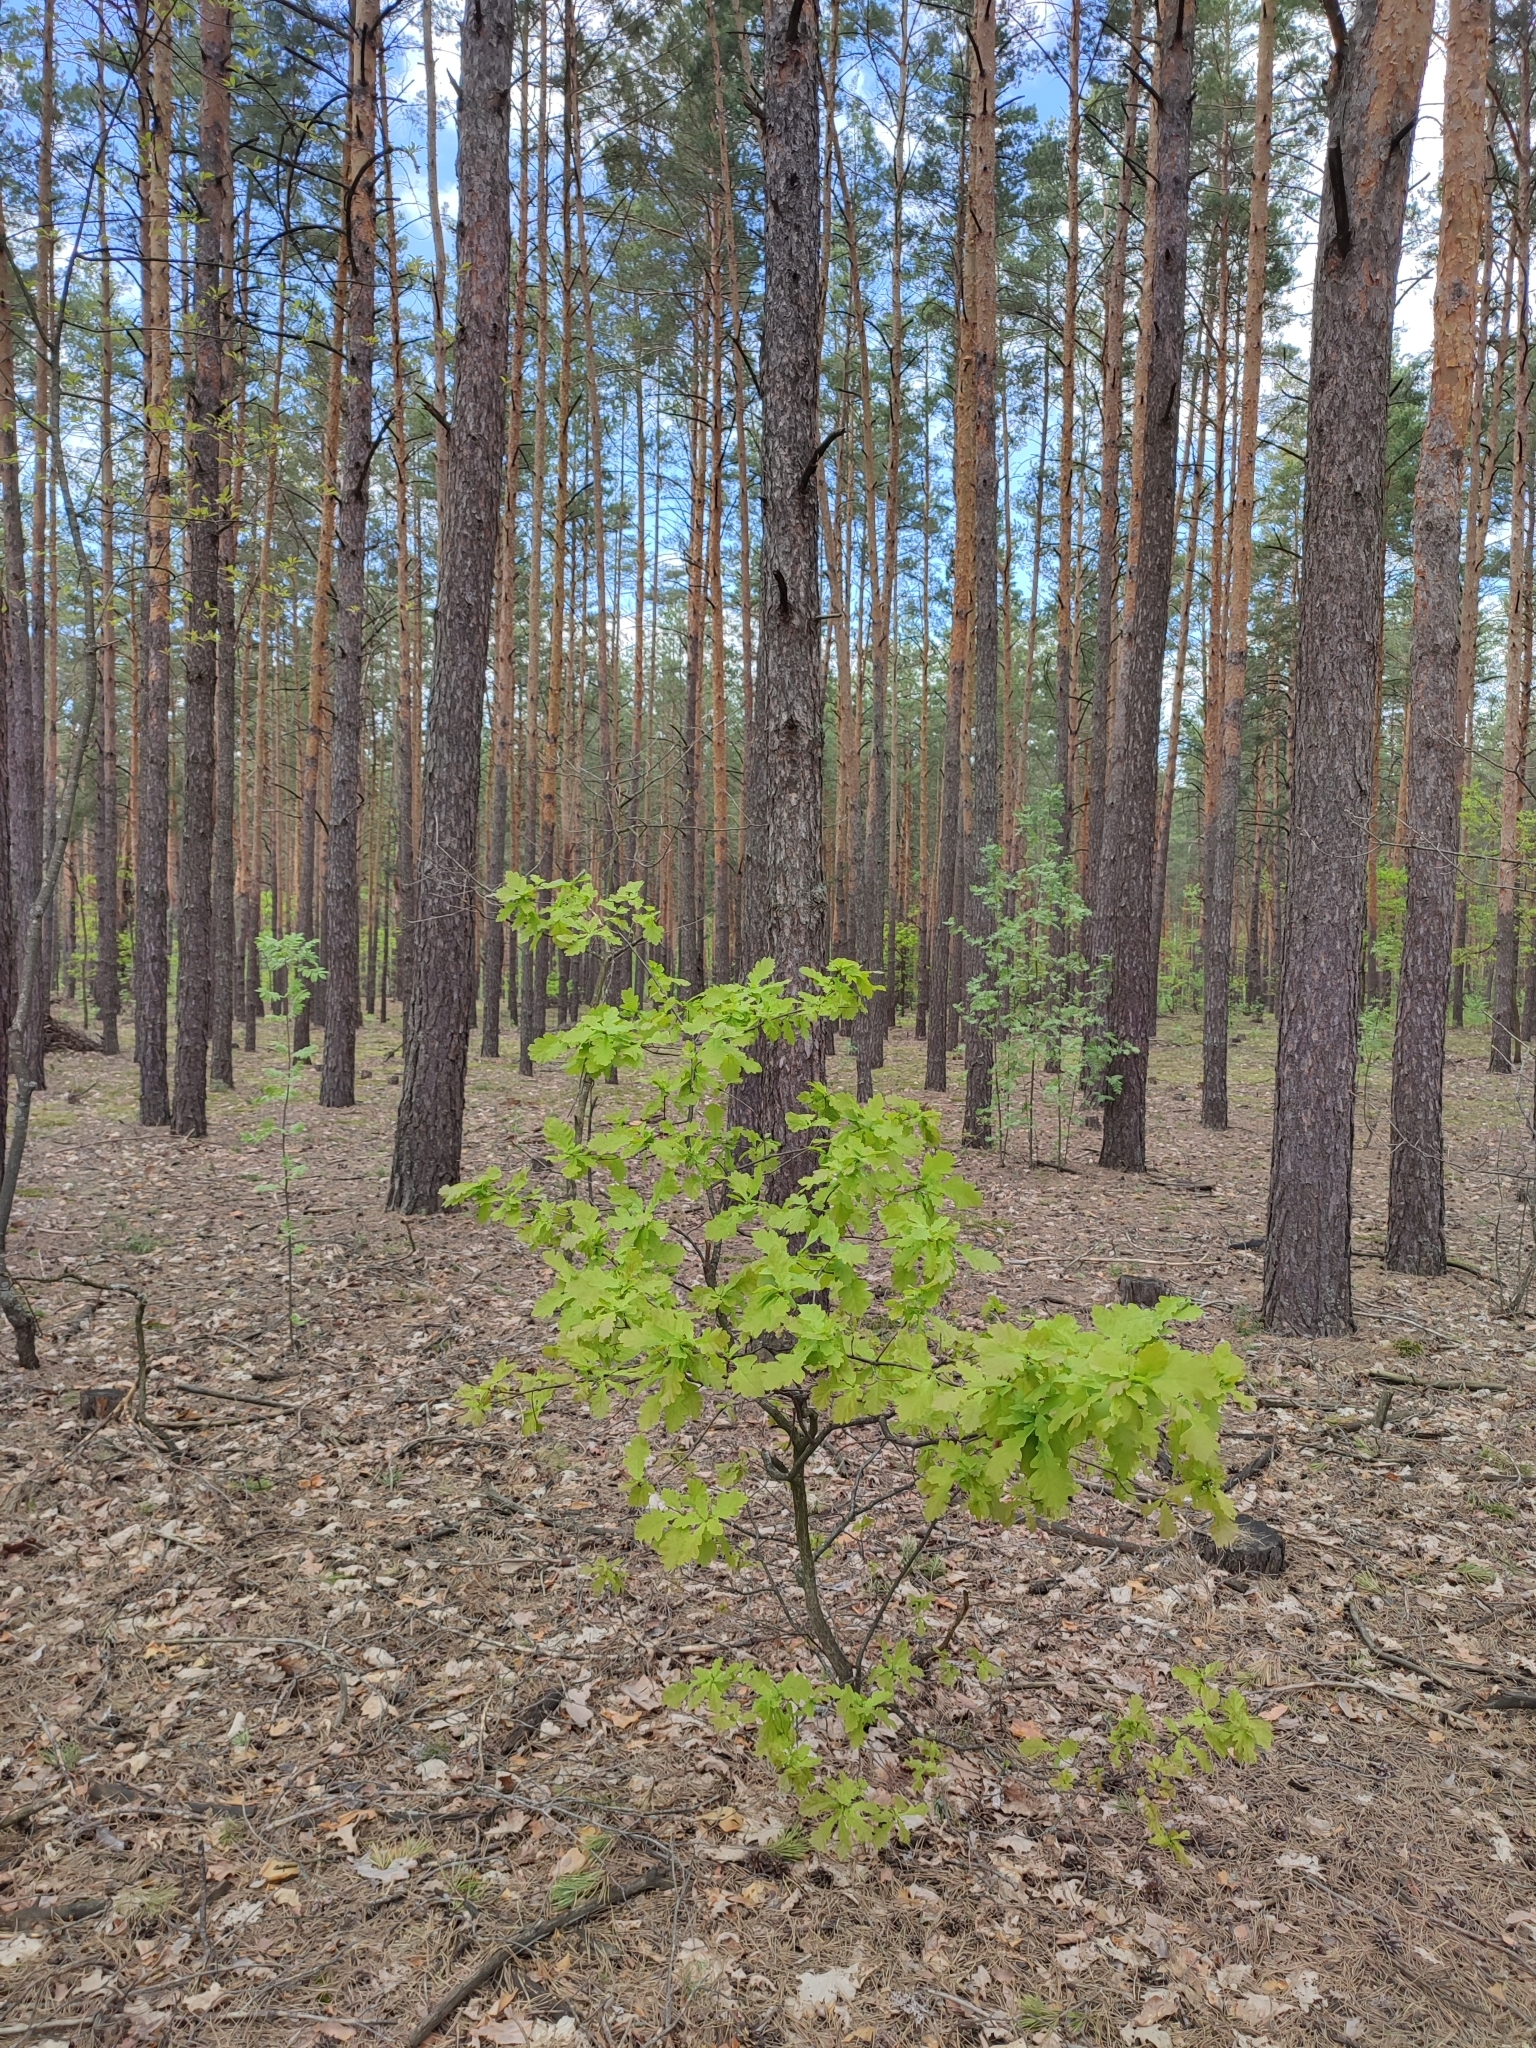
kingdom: Plantae
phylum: Tracheophyta
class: Magnoliopsida
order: Fagales
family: Fagaceae
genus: Quercus
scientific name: Quercus robur
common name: Pedunculate oak
